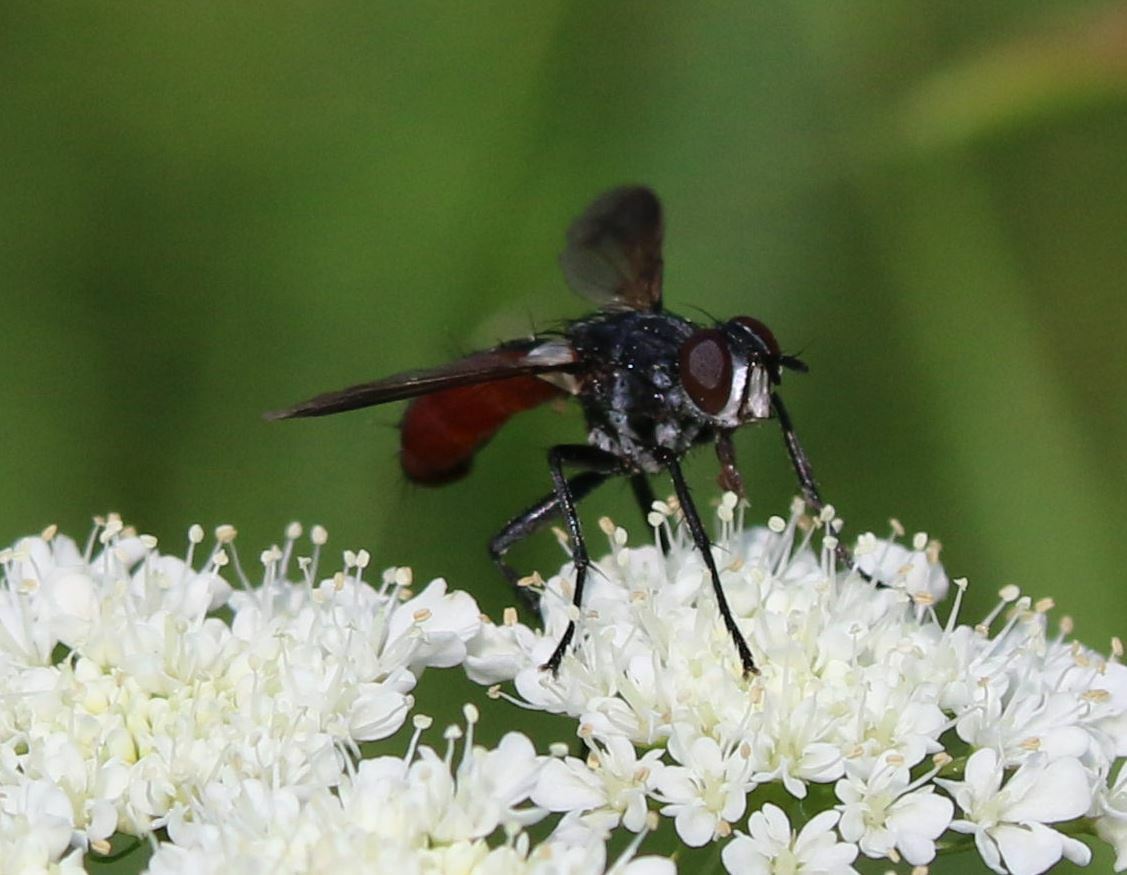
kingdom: Animalia
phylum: Arthropoda
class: Insecta
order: Diptera
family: Tachinidae
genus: Cylindromyia
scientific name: Cylindromyia bicolor
